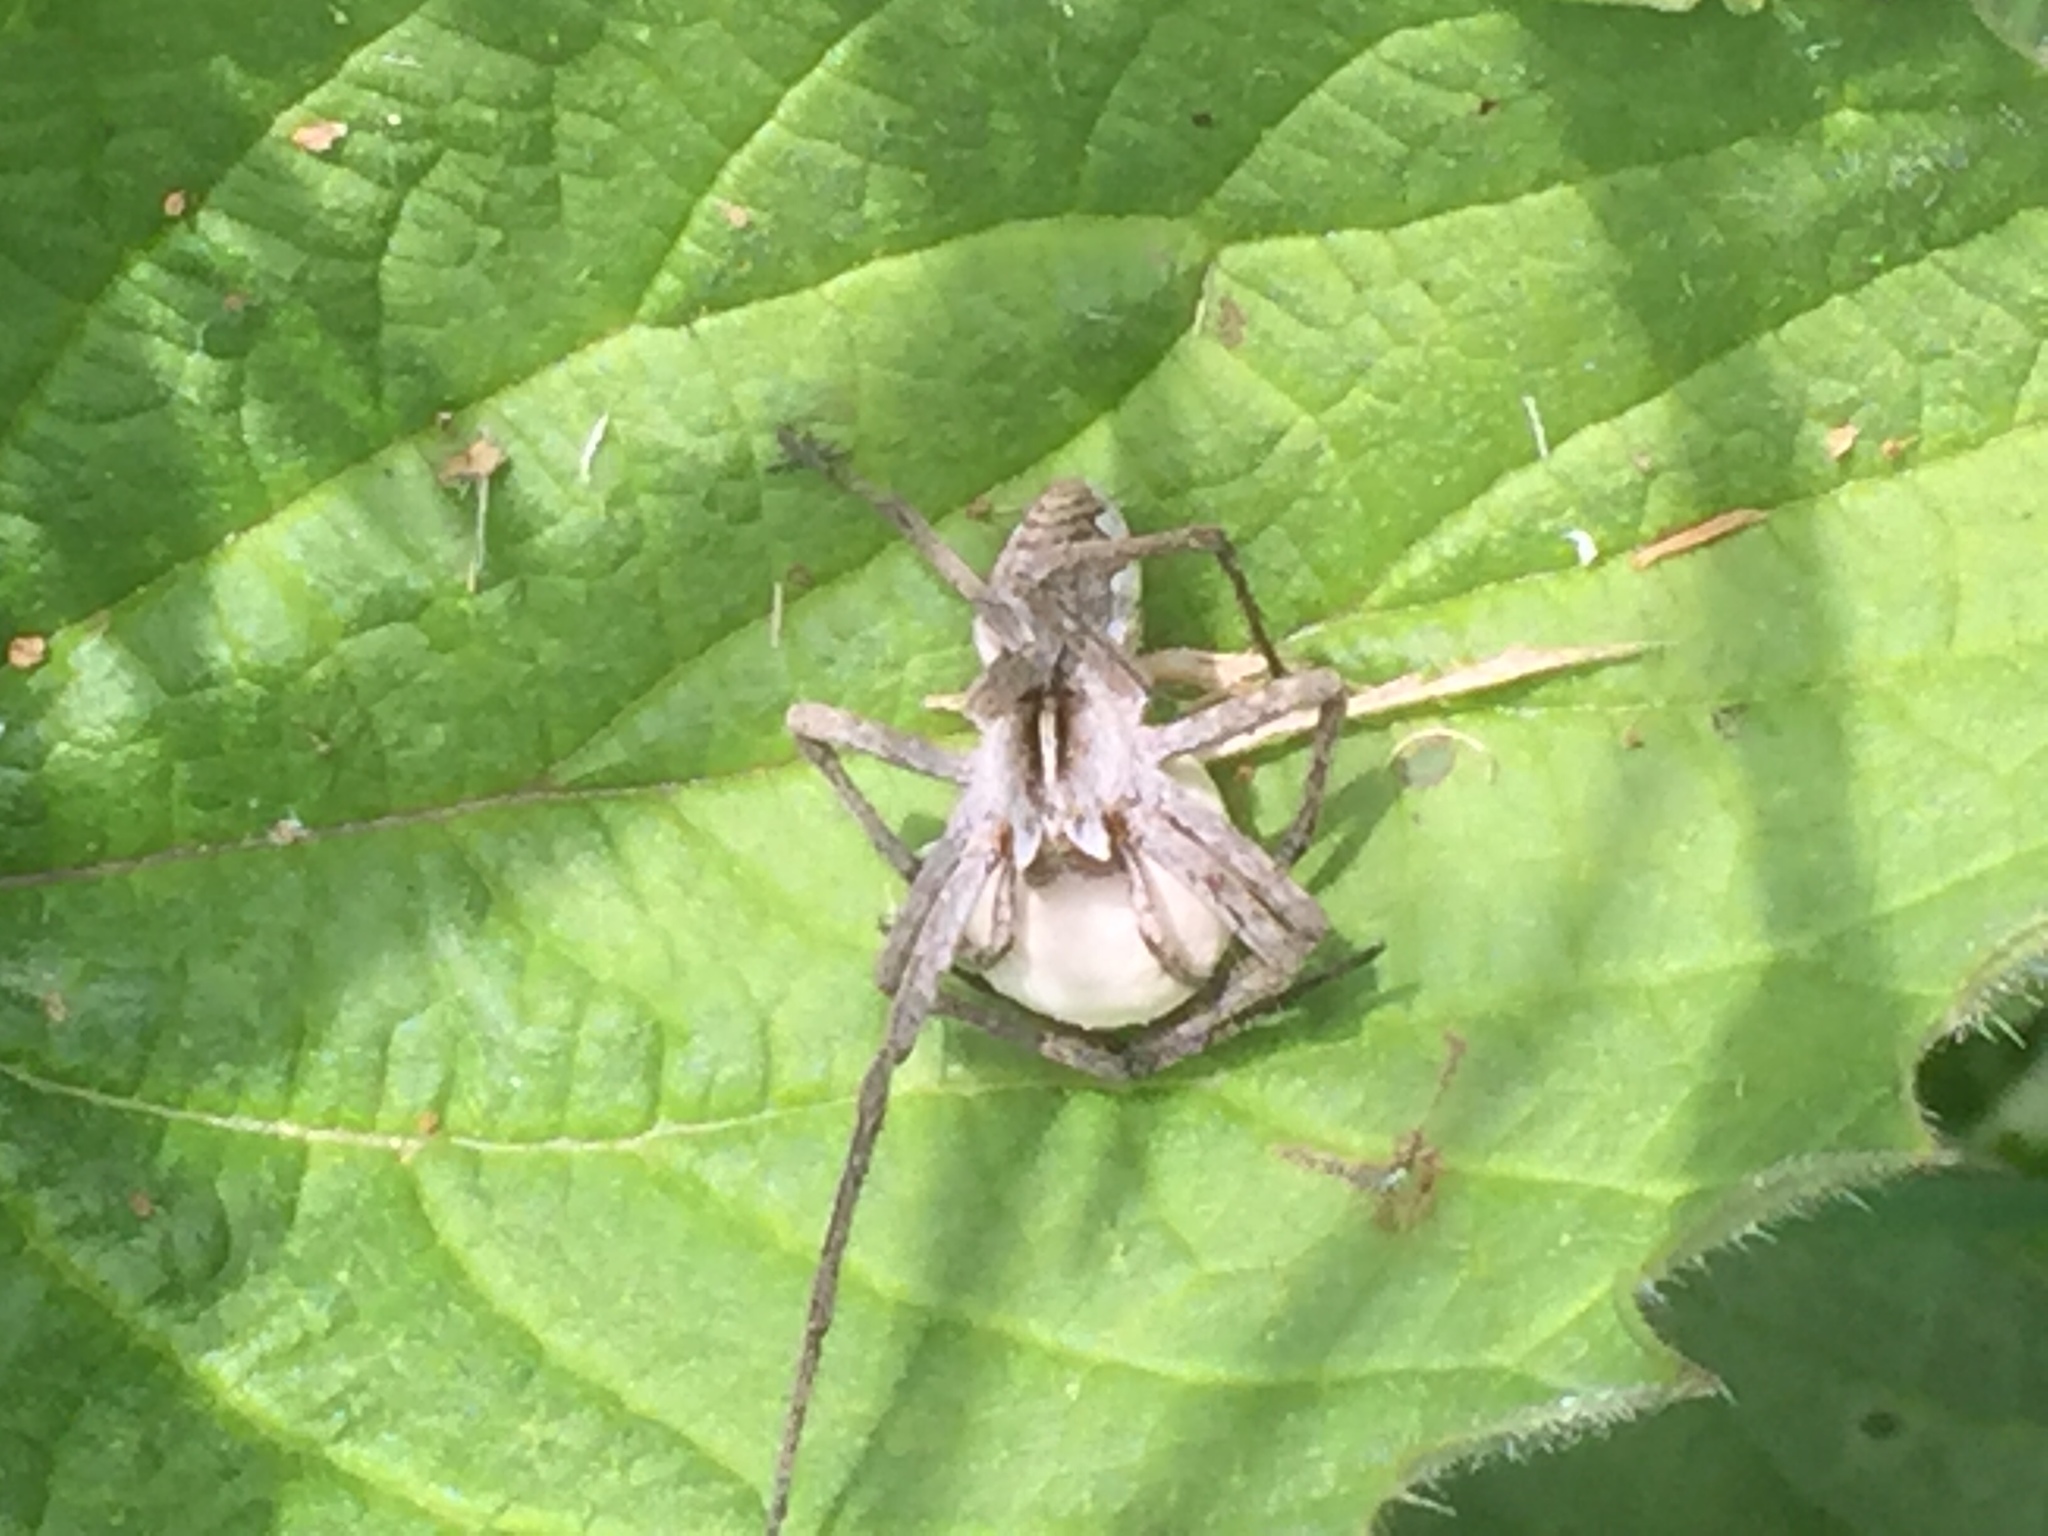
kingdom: Animalia
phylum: Arthropoda
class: Arachnida
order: Araneae
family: Pisauridae
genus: Pisaura
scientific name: Pisaura mirabilis
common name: Tent spider
